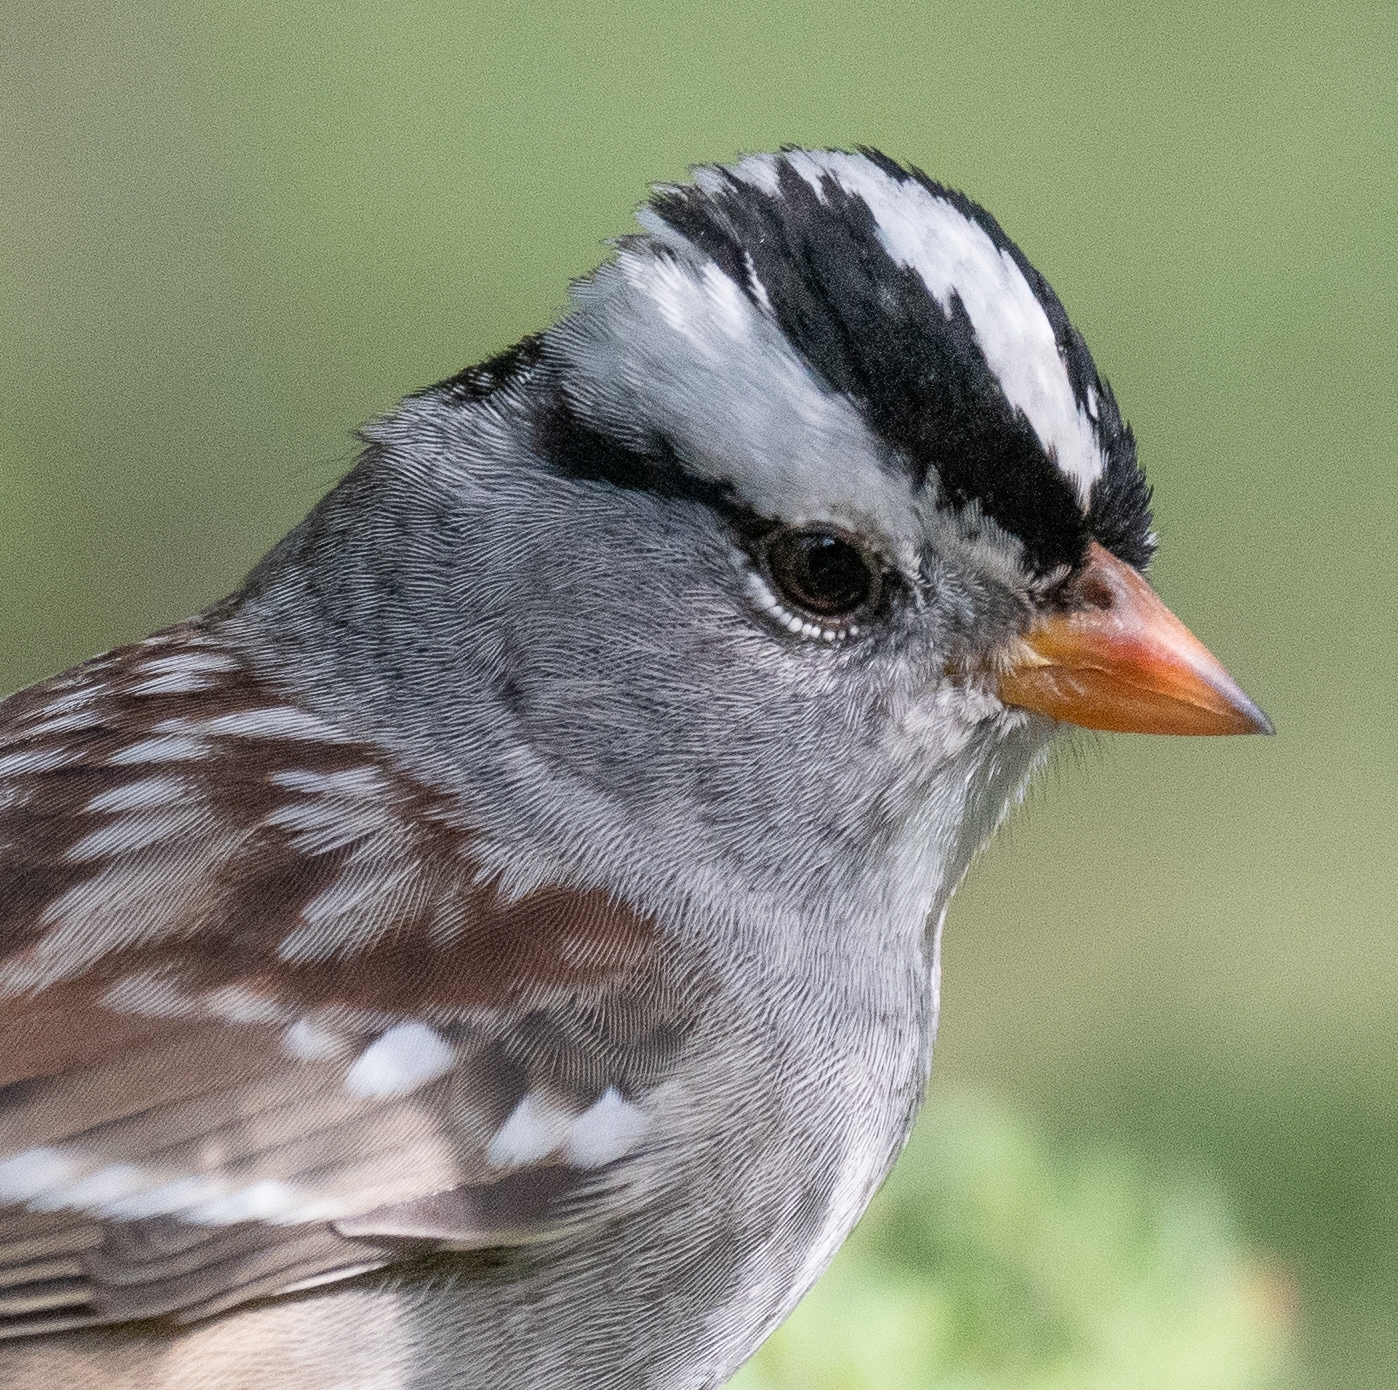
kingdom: Animalia
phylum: Chordata
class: Aves
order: Passeriformes
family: Passerellidae
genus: Zonotrichia
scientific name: Zonotrichia leucophrys
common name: White-crowned sparrow
